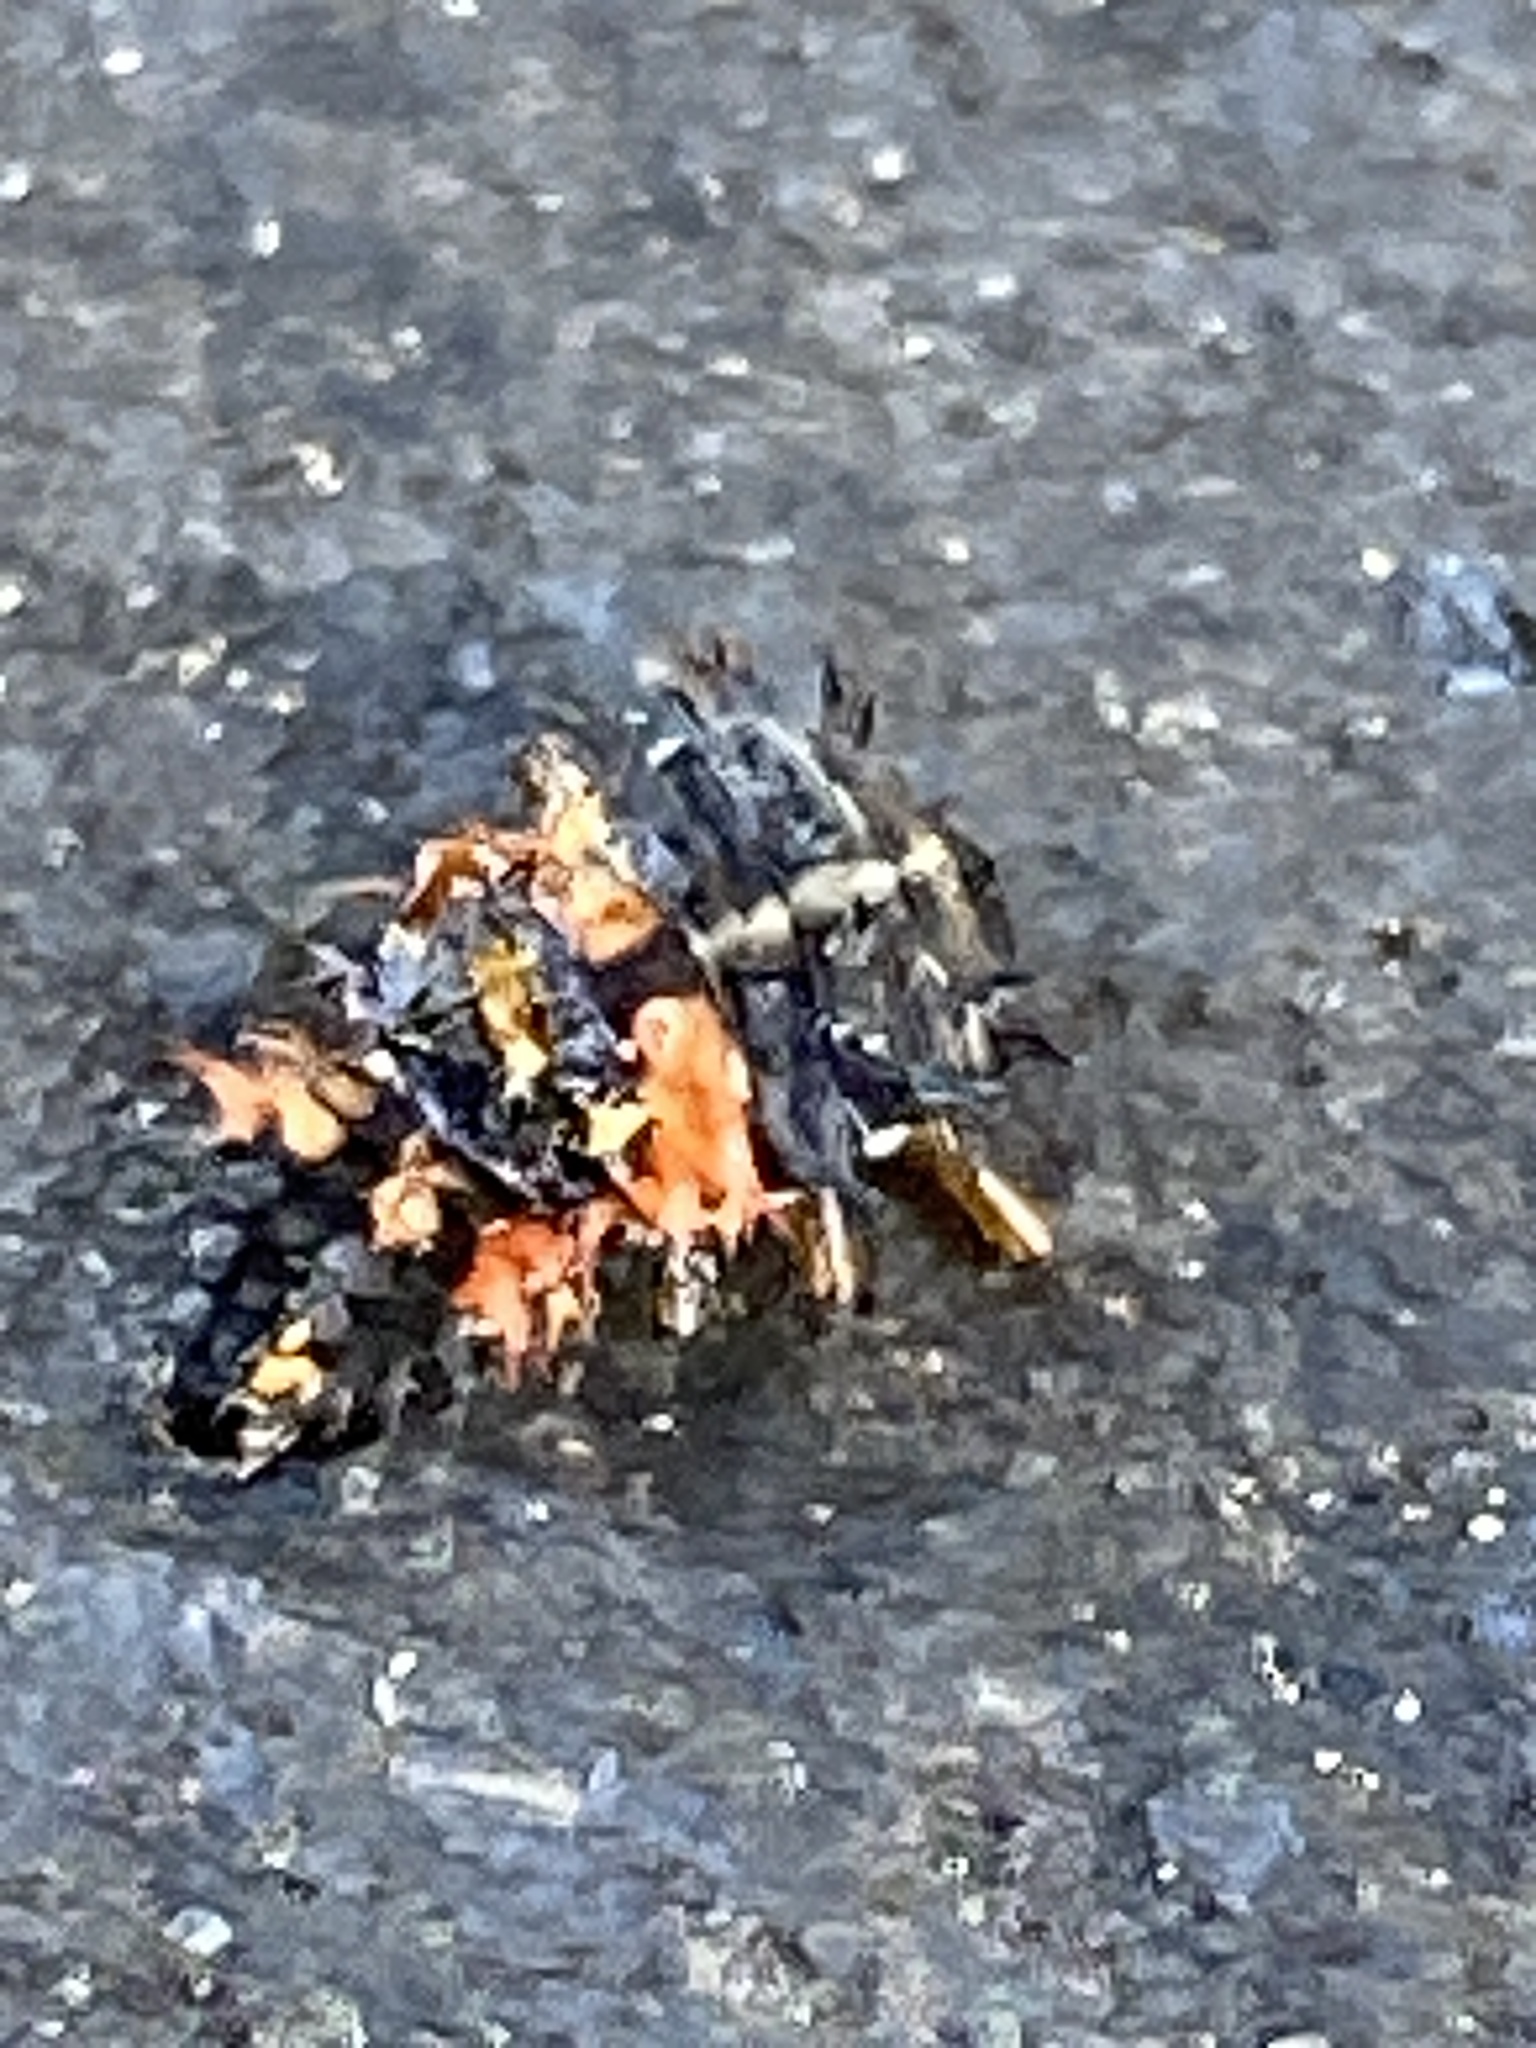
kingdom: Animalia
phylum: Arthropoda
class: Insecta
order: Coleoptera
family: Coccinellidae
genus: Harmonia
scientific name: Harmonia axyridis
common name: Harlequin ladybird
